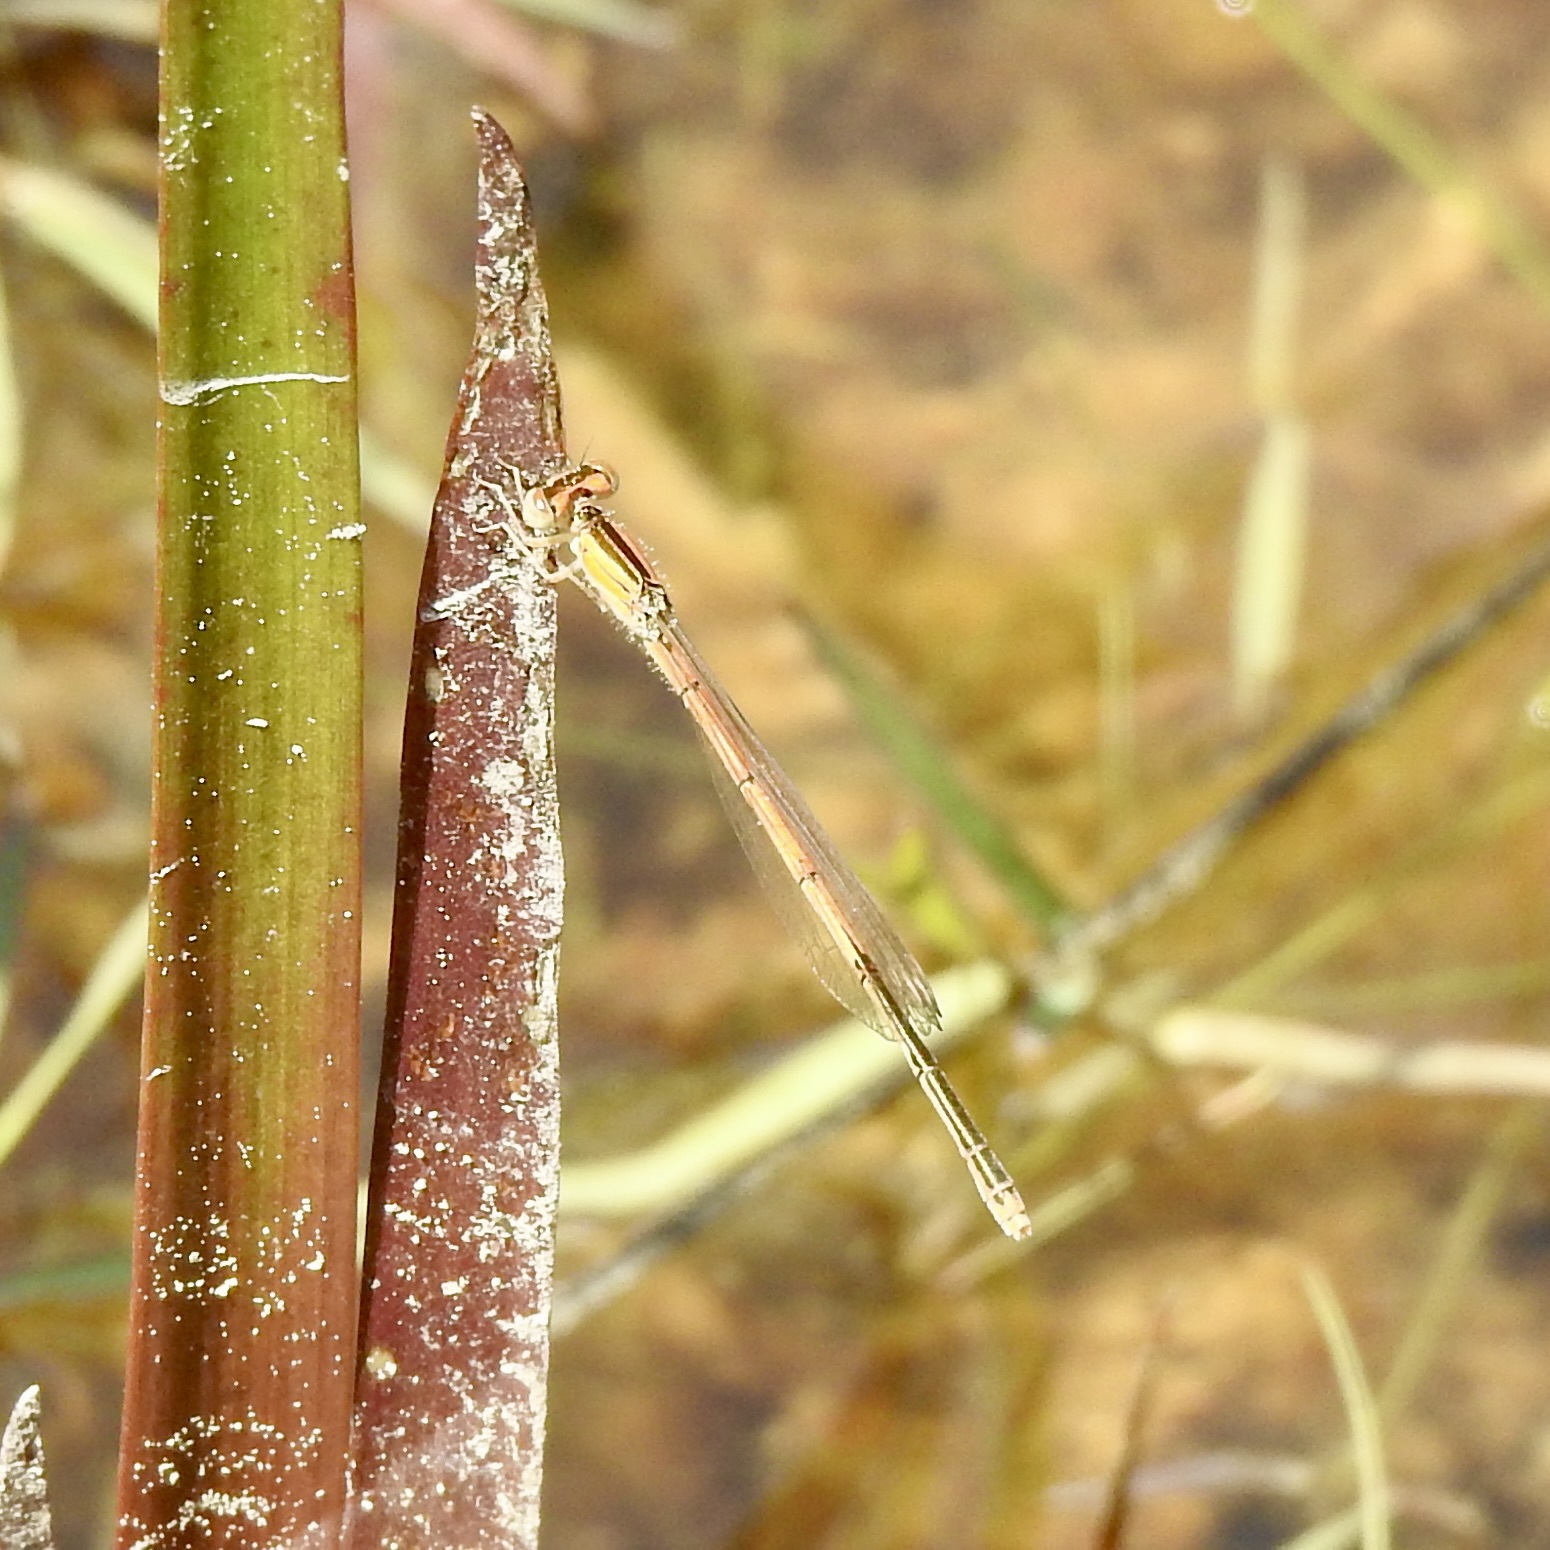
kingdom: Animalia
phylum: Arthropoda
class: Insecta
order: Odonata
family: Coenagrionidae
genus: Ischnura
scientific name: Ischnura hastata
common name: Citrine forktail
